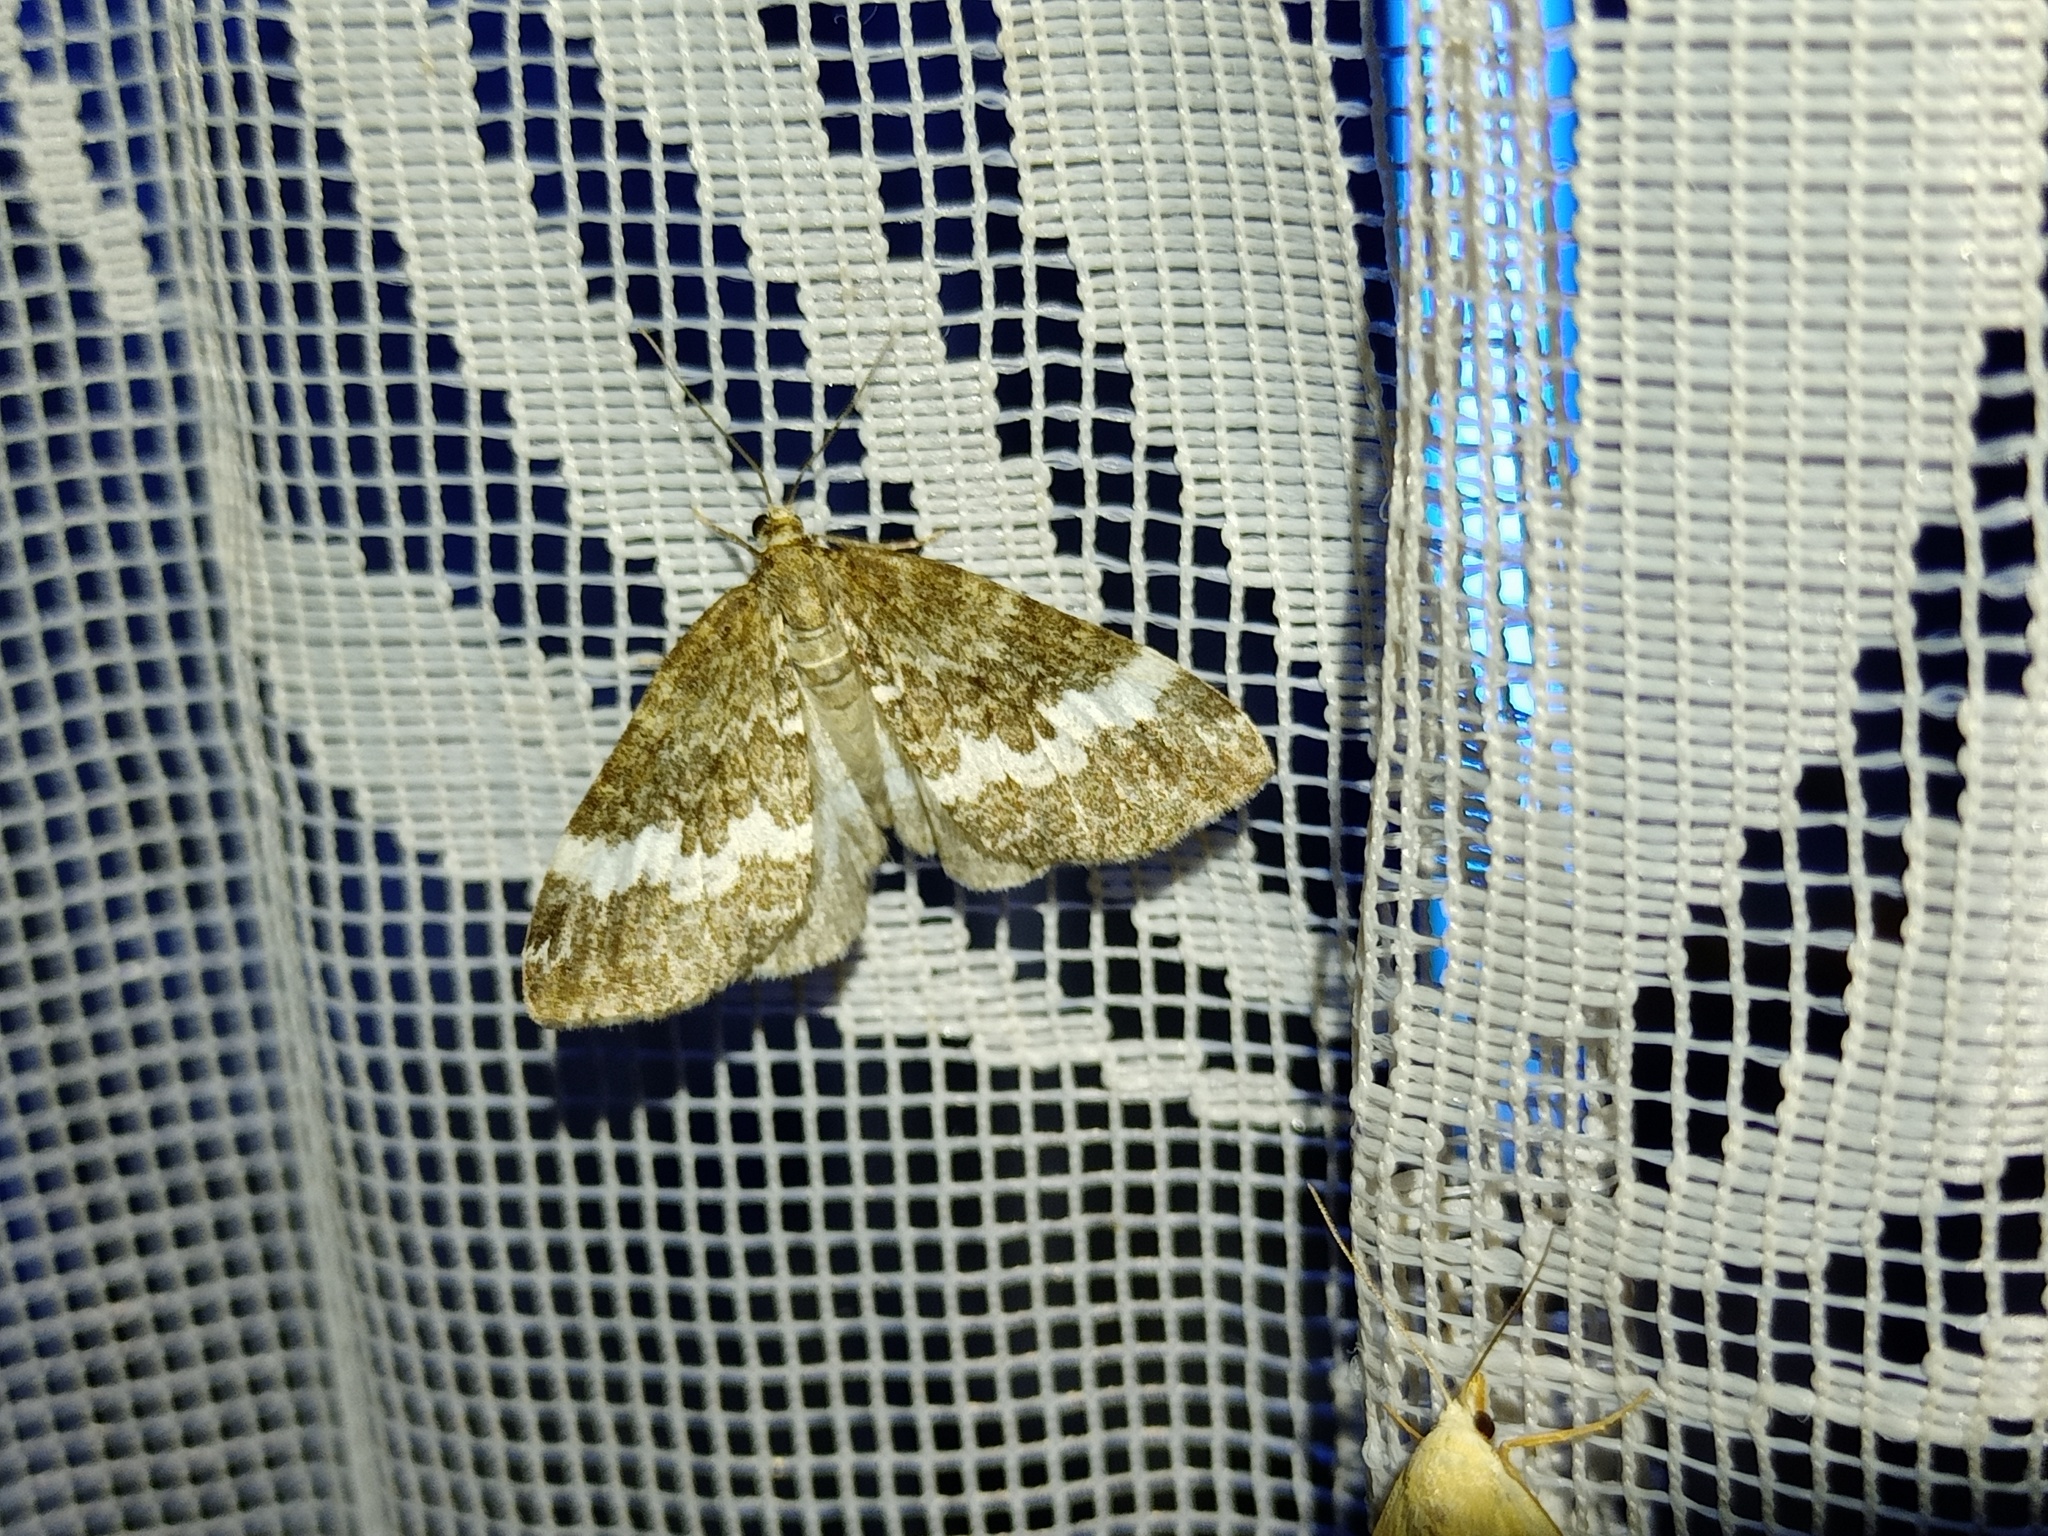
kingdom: Animalia
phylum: Arthropoda
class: Insecta
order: Lepidoptera
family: Geometridae
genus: Perizoma
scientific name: Perizoma affinitata
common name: Rivulet
